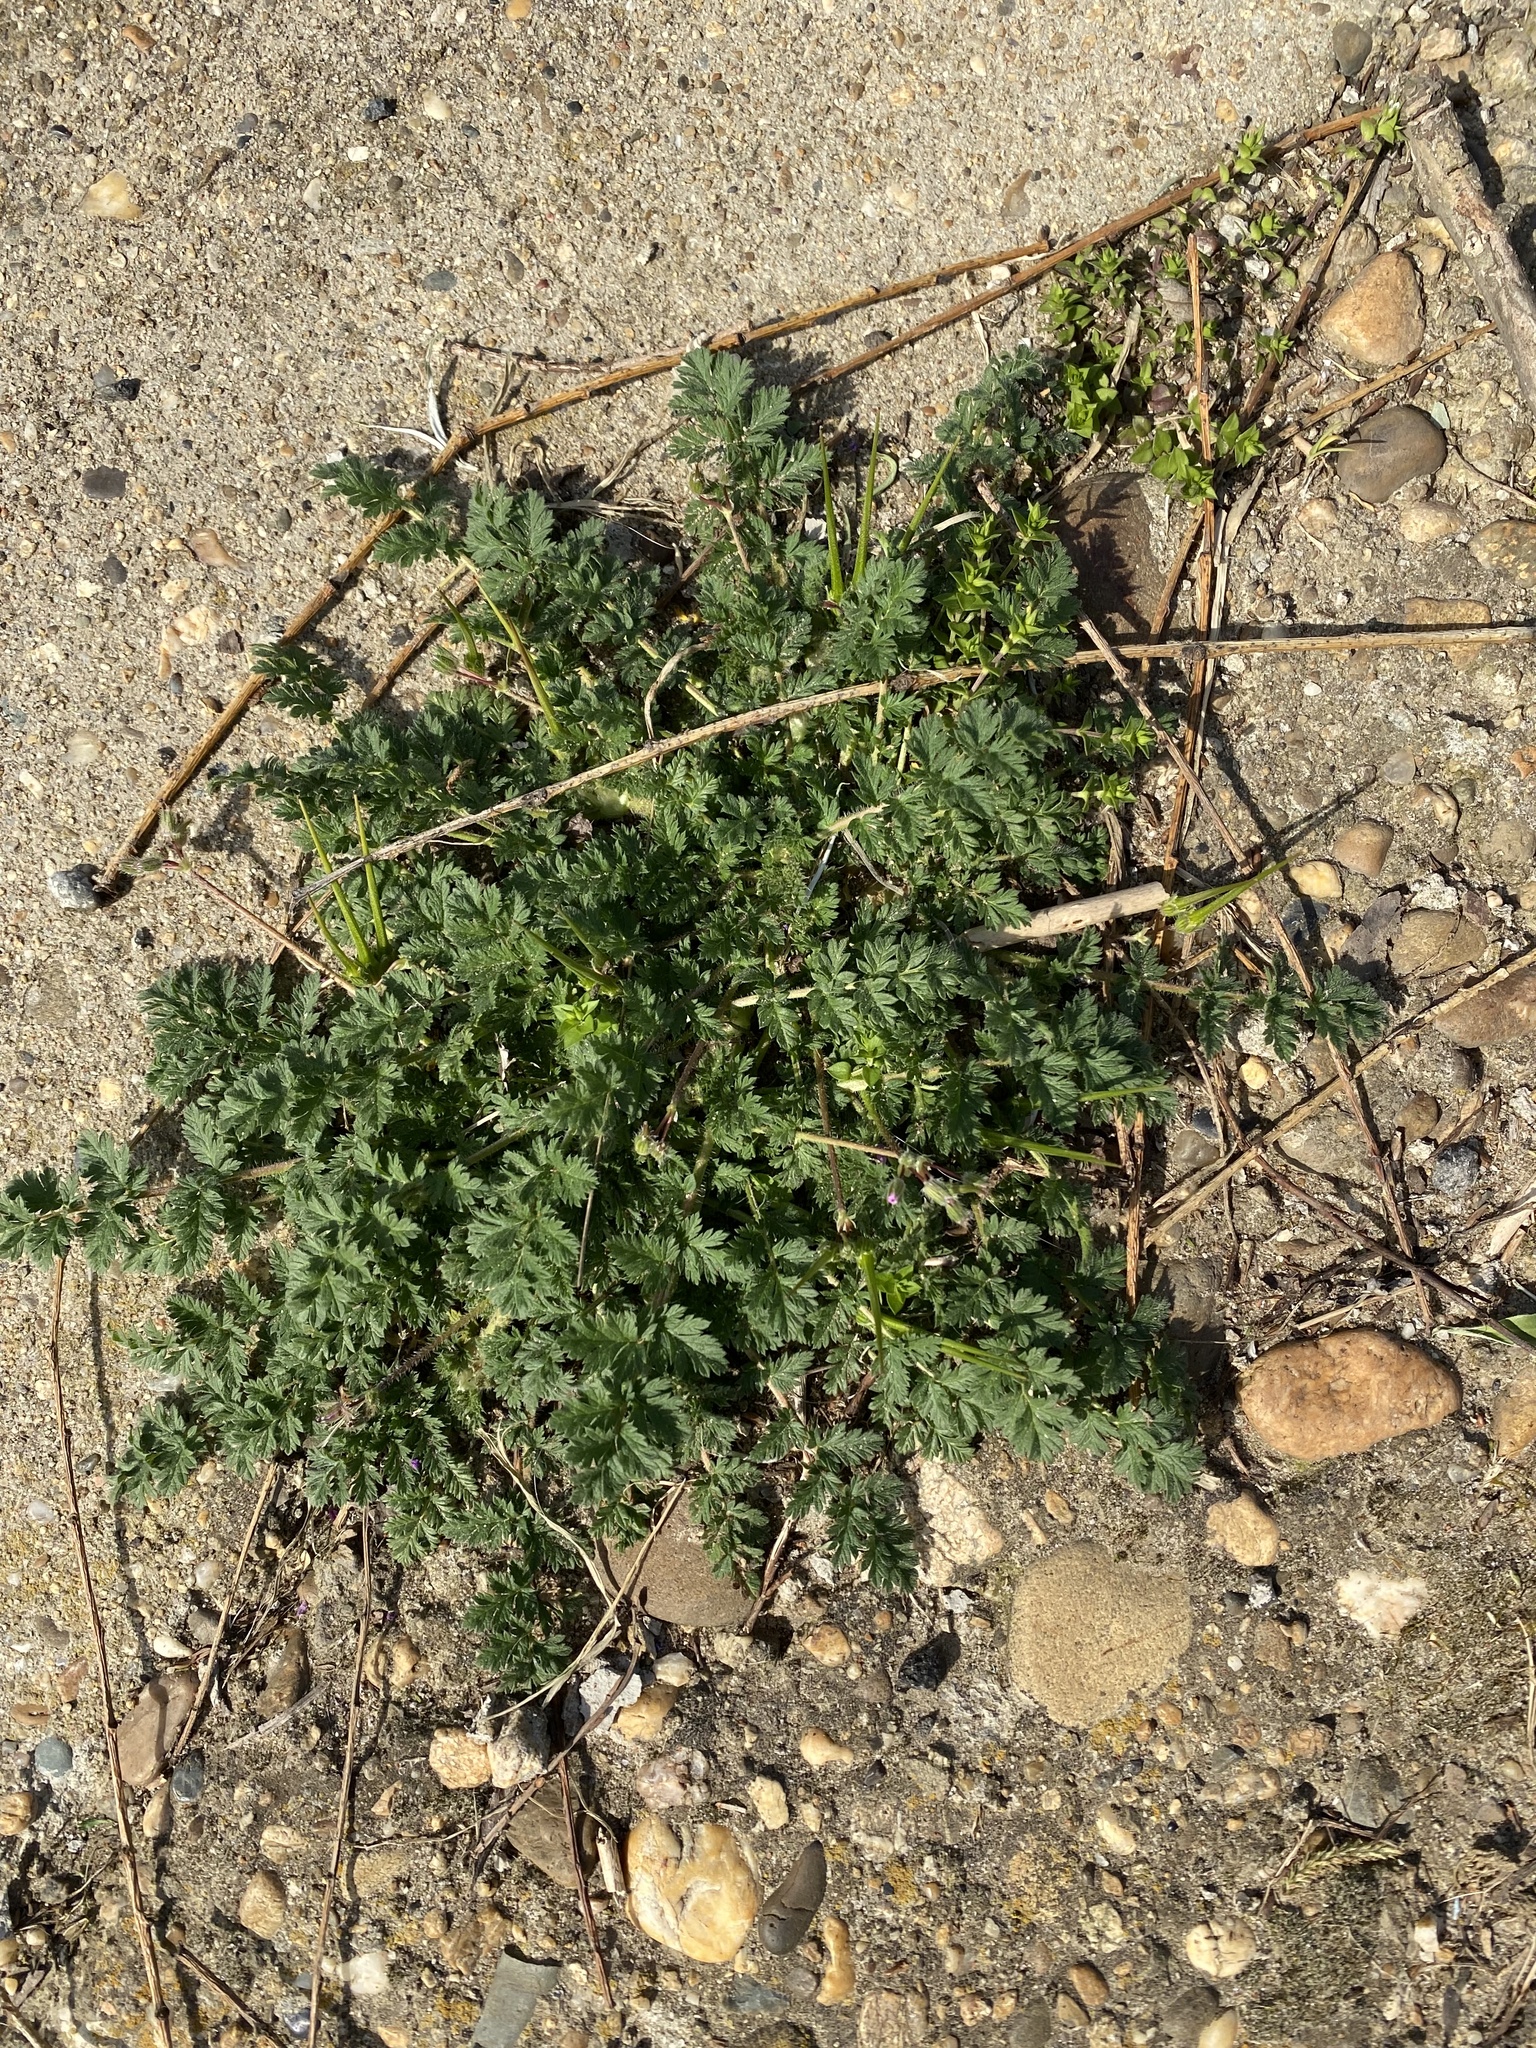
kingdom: Plantae
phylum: Tracheophyta
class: Magnoliopsida
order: Geraniales
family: Geraniaceae
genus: Erodium
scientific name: Erodium cicutarium
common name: Common stork's-bill
